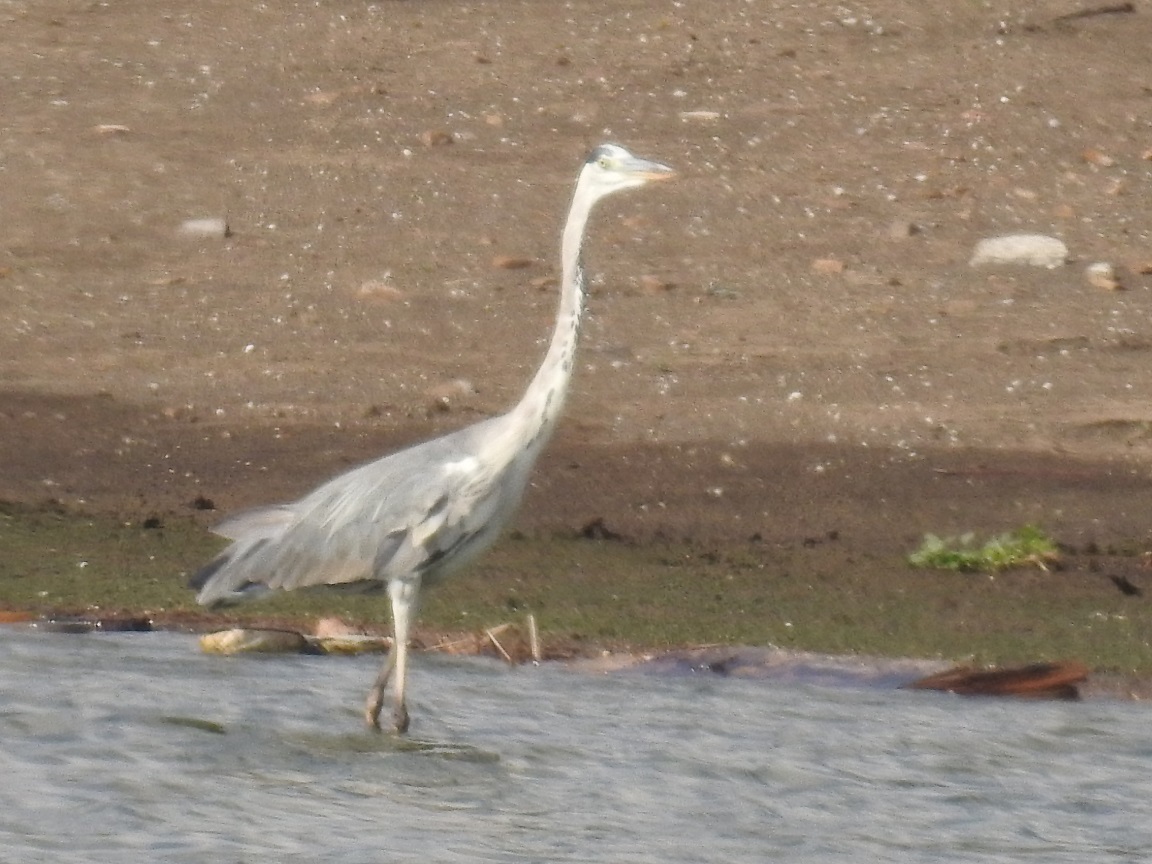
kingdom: Animalia
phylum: Chordata
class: Aves
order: Pelecaniformes
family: Ardeidae
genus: Ardea
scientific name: Ardea cinerea
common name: Grey heron
